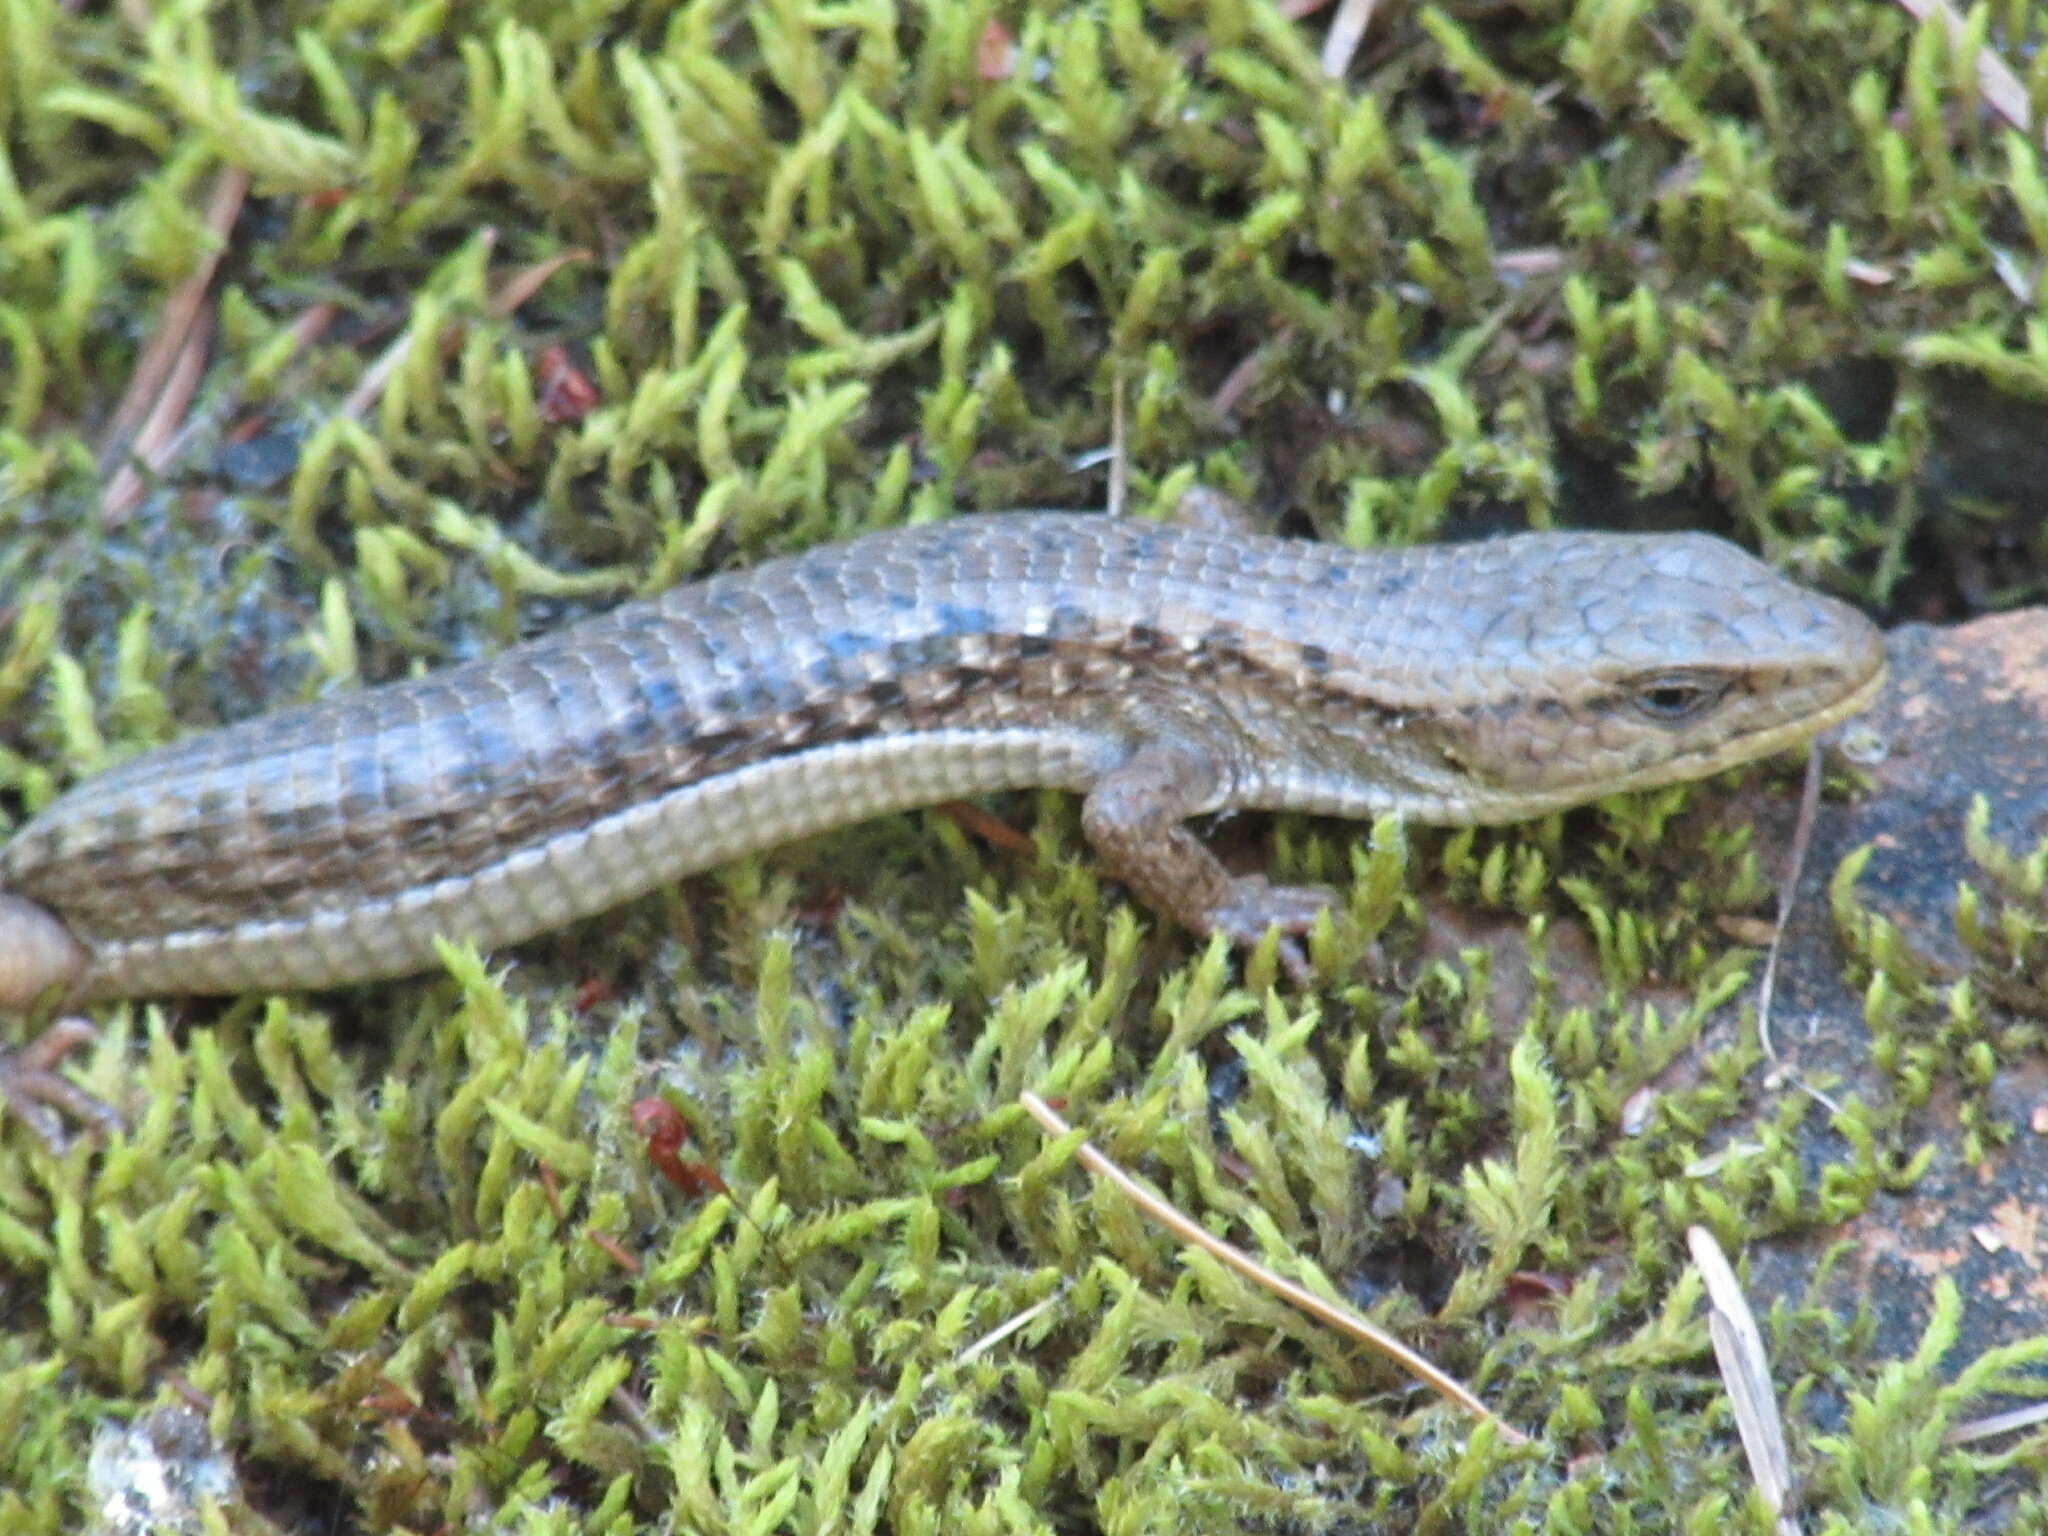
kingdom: Animalia
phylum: Chordata
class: Squamata
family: Anguidae
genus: Elgaria
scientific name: Elgaria coerulea
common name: Northern alligator lizard
